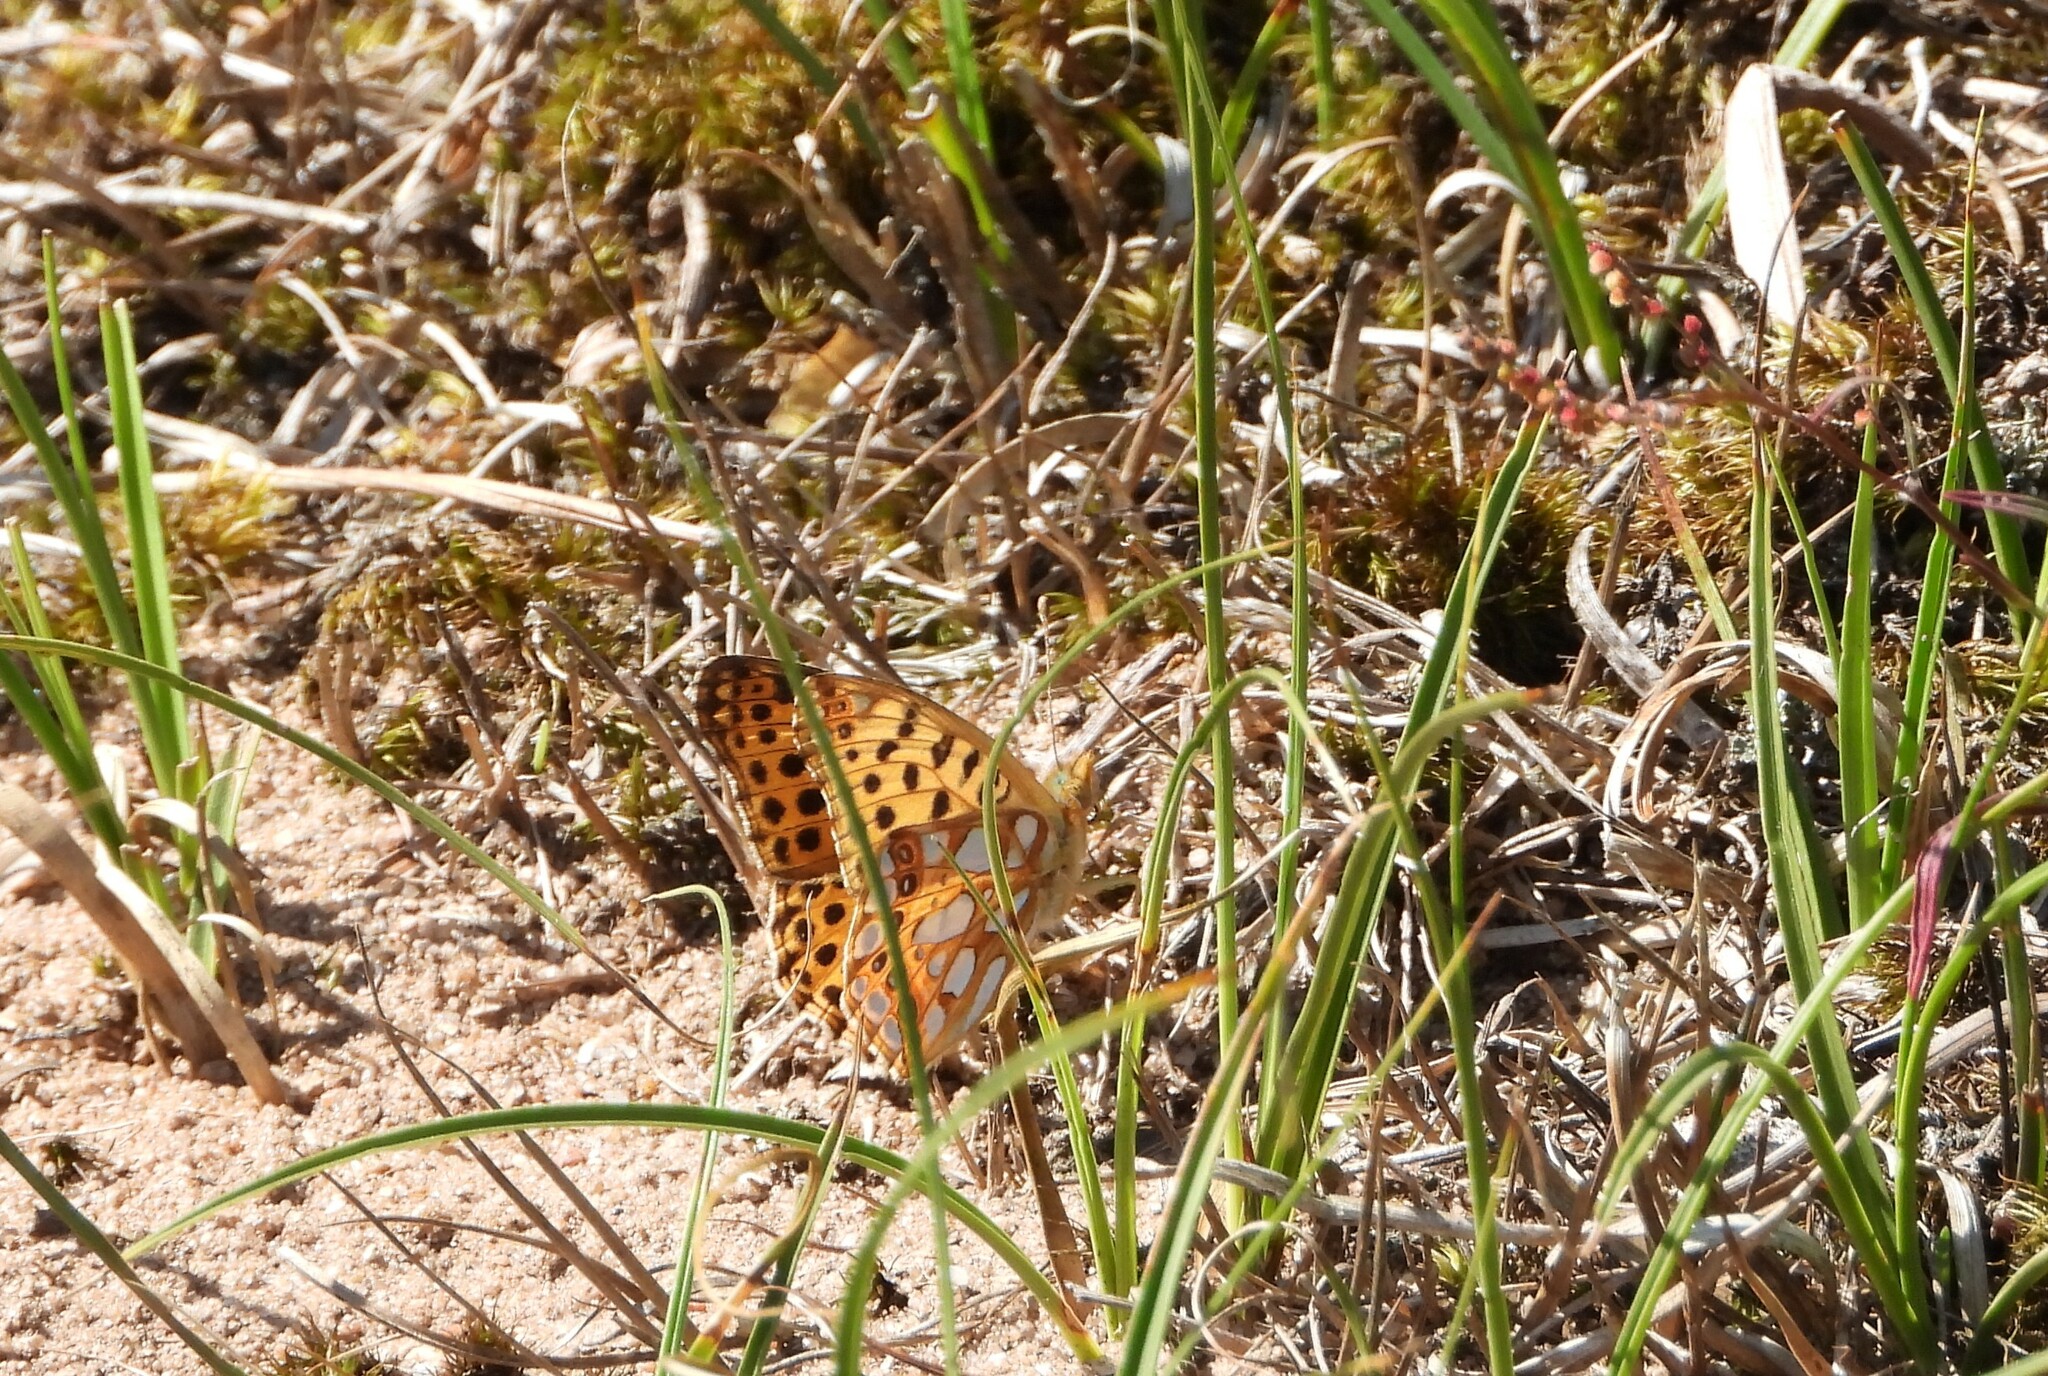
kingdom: Animalia
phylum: Arthropoda
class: Insecta
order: Lepidoptera
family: Nymphalidae
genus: Issoria
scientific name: Issoria lathonia
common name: Queen of spain fritillary
